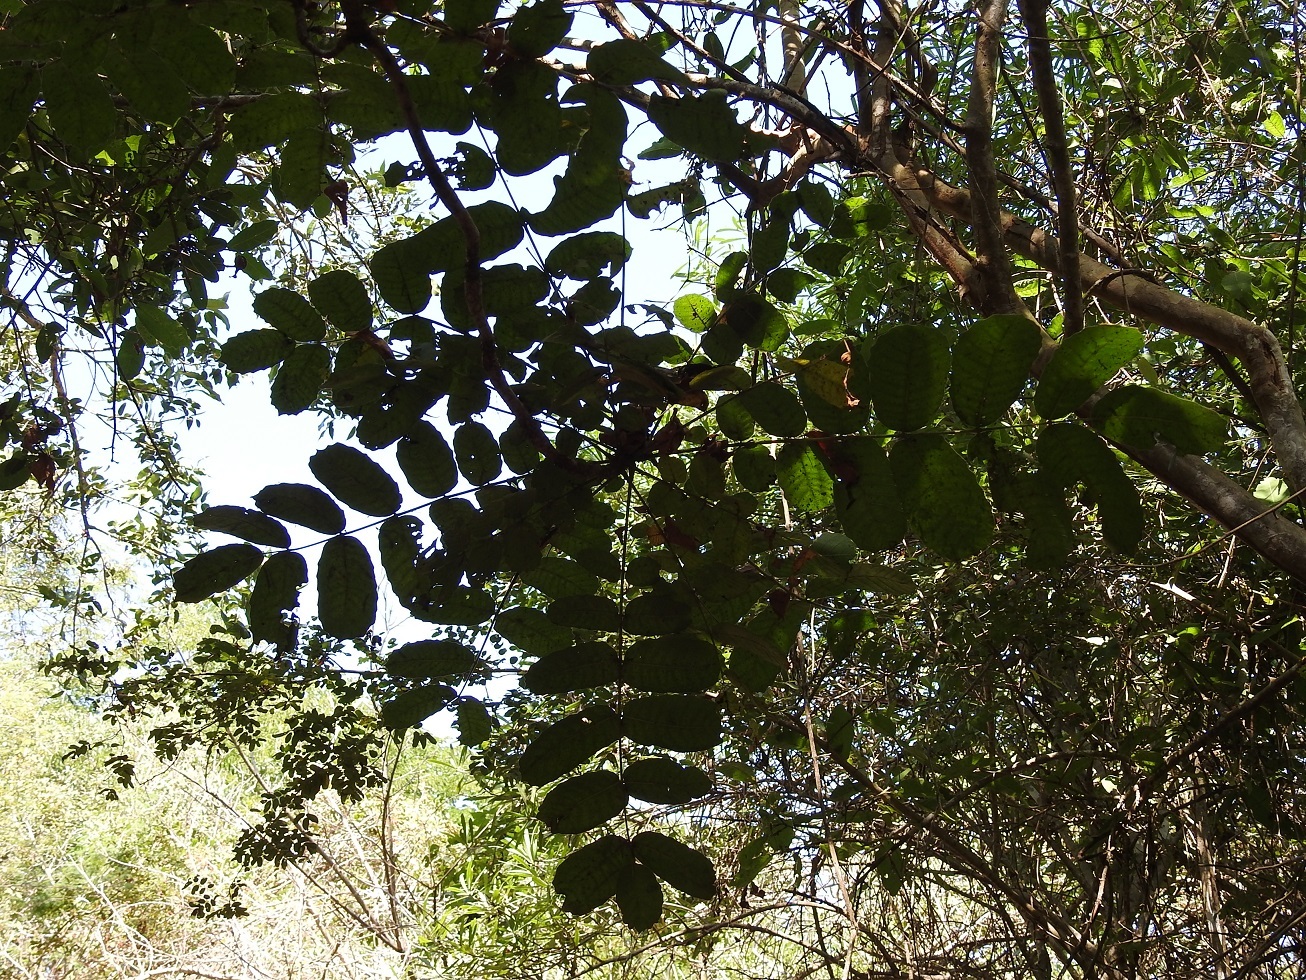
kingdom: Plantae
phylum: Tracheophyta
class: Magnoliopsida
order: Sapindales
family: Anacardiaceae
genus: Comocladia
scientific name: Comocladia macrophylla
